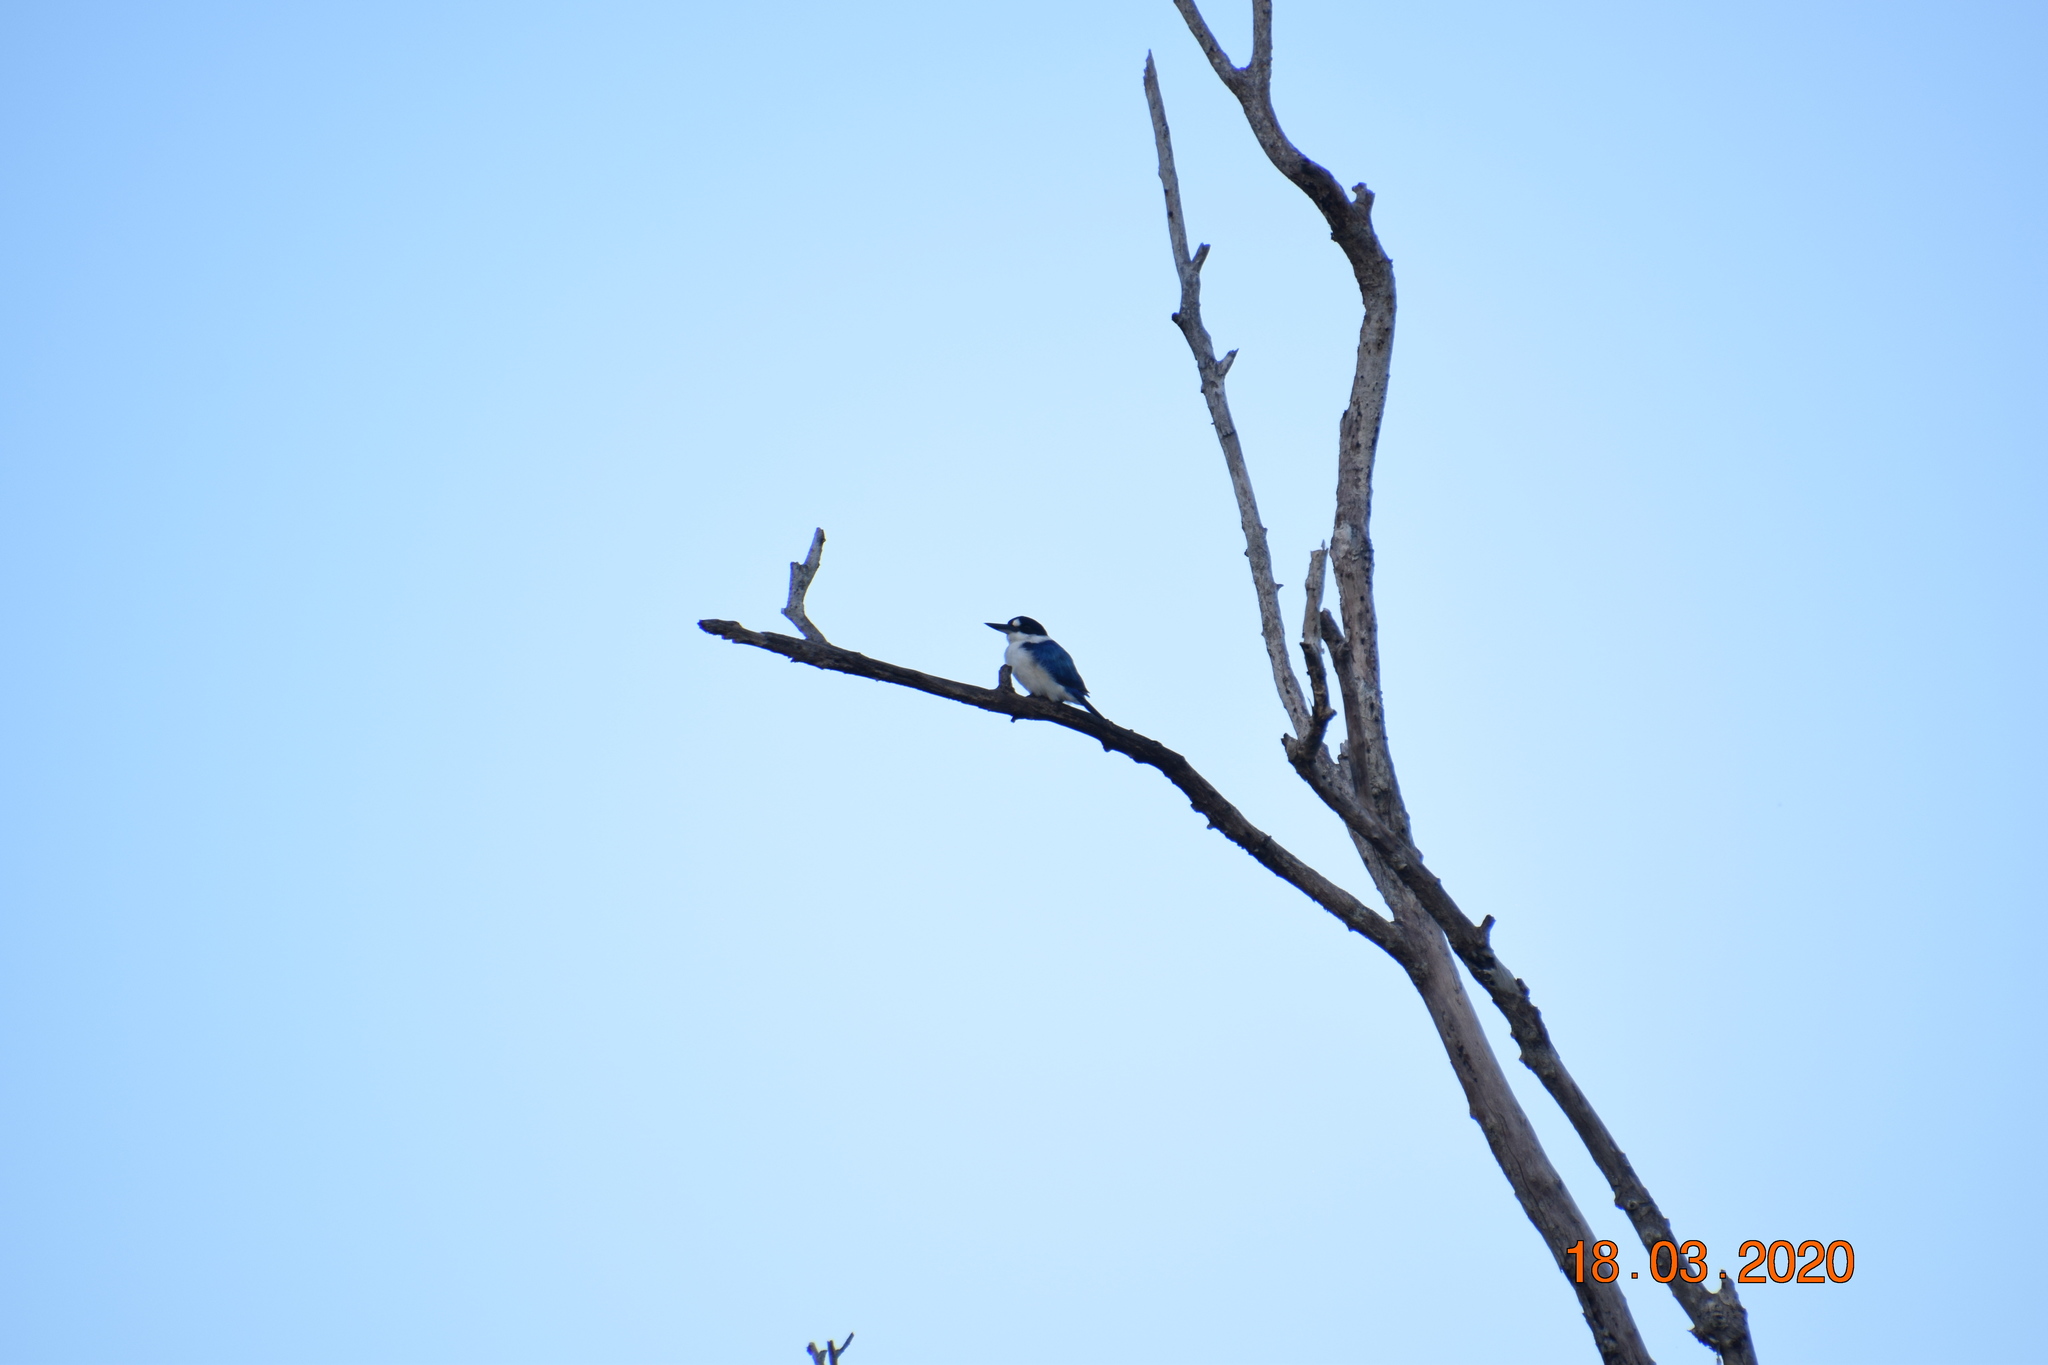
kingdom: Animalia
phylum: Chordata
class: Aves
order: Coraciiformes
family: Alcedinidae
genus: Todiramphus
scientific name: Todiramphus macleayii
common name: Forest kingfisher
